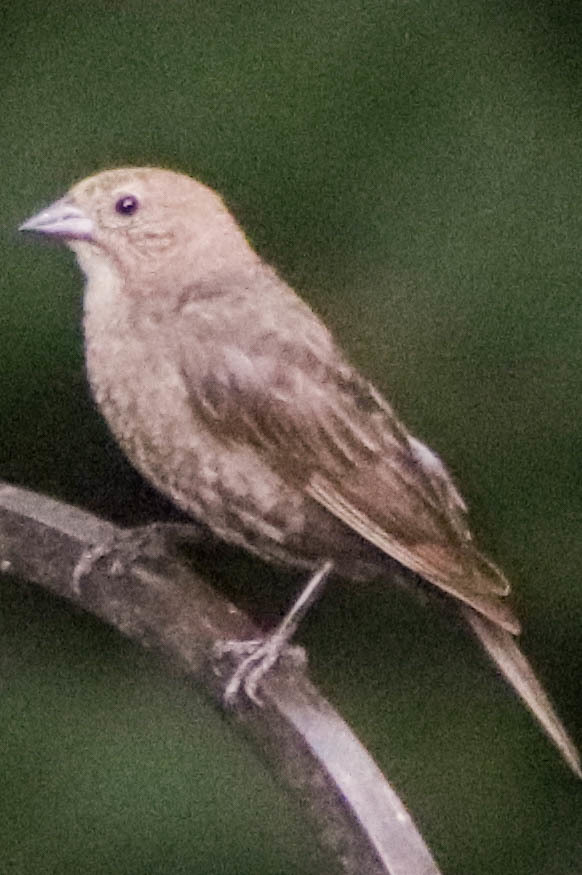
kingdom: Animalia
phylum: Chordata
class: Aves
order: Passeriformes
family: Icteridae
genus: Molothrus
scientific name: Molothrus ater
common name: Brown-headed cowbird
